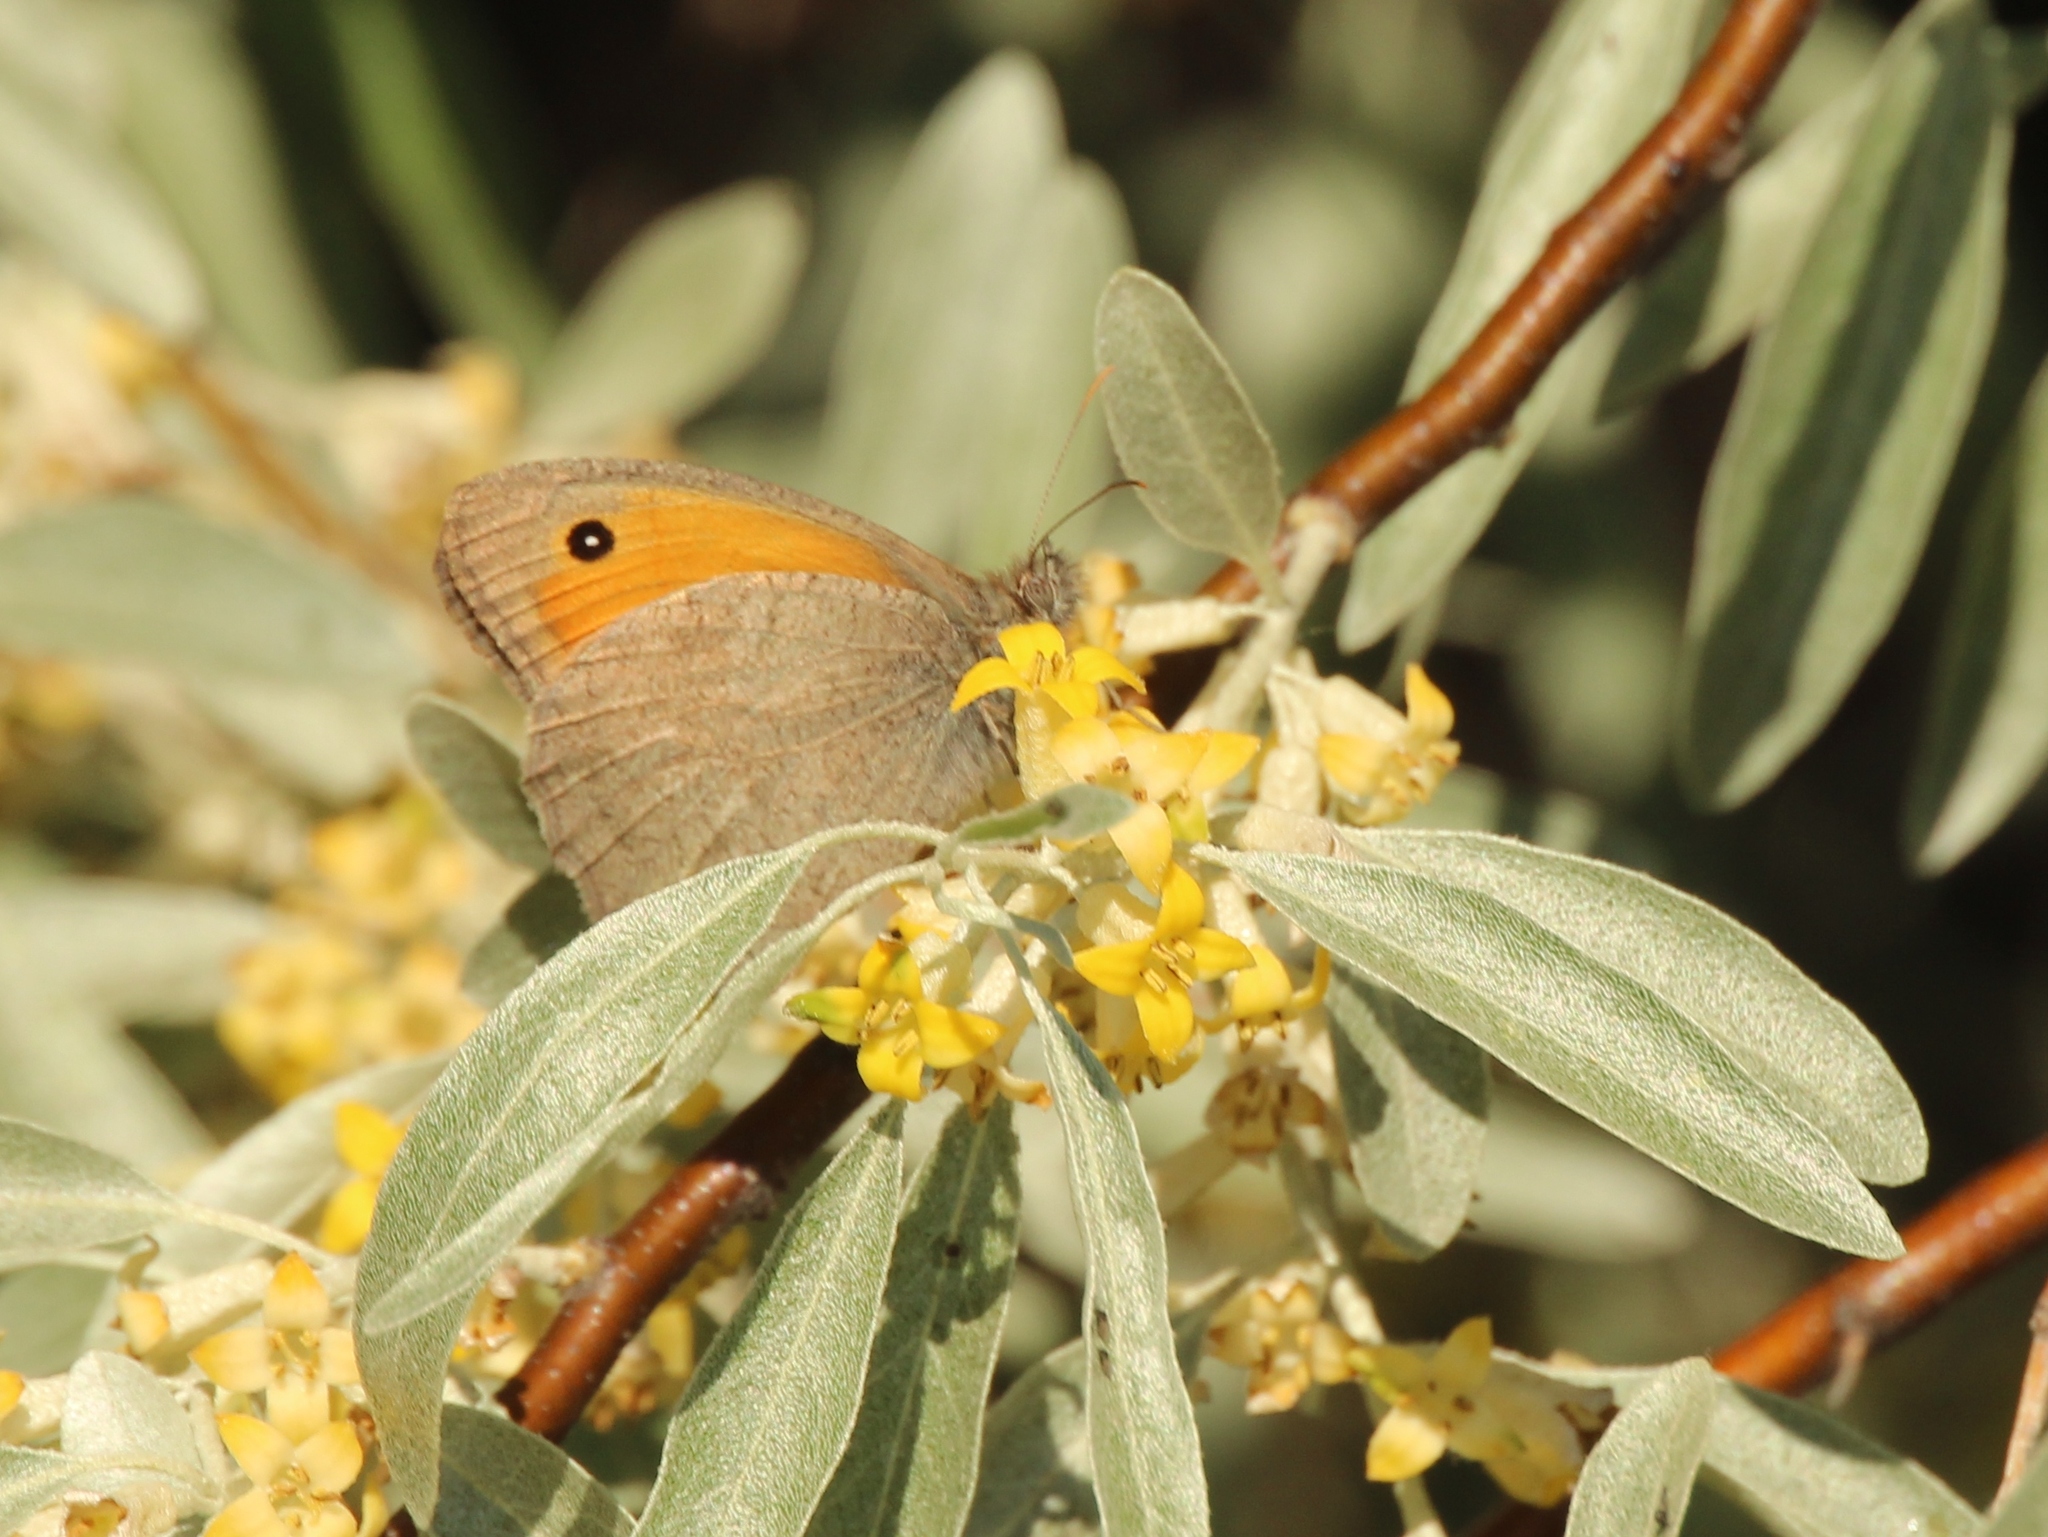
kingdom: Animalia
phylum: Arthropoda
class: Insecta
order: Lepidoptera
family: Nymphalidae
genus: Hyponephele
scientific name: Hyponephele lycaon
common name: Dusky meadow brown
